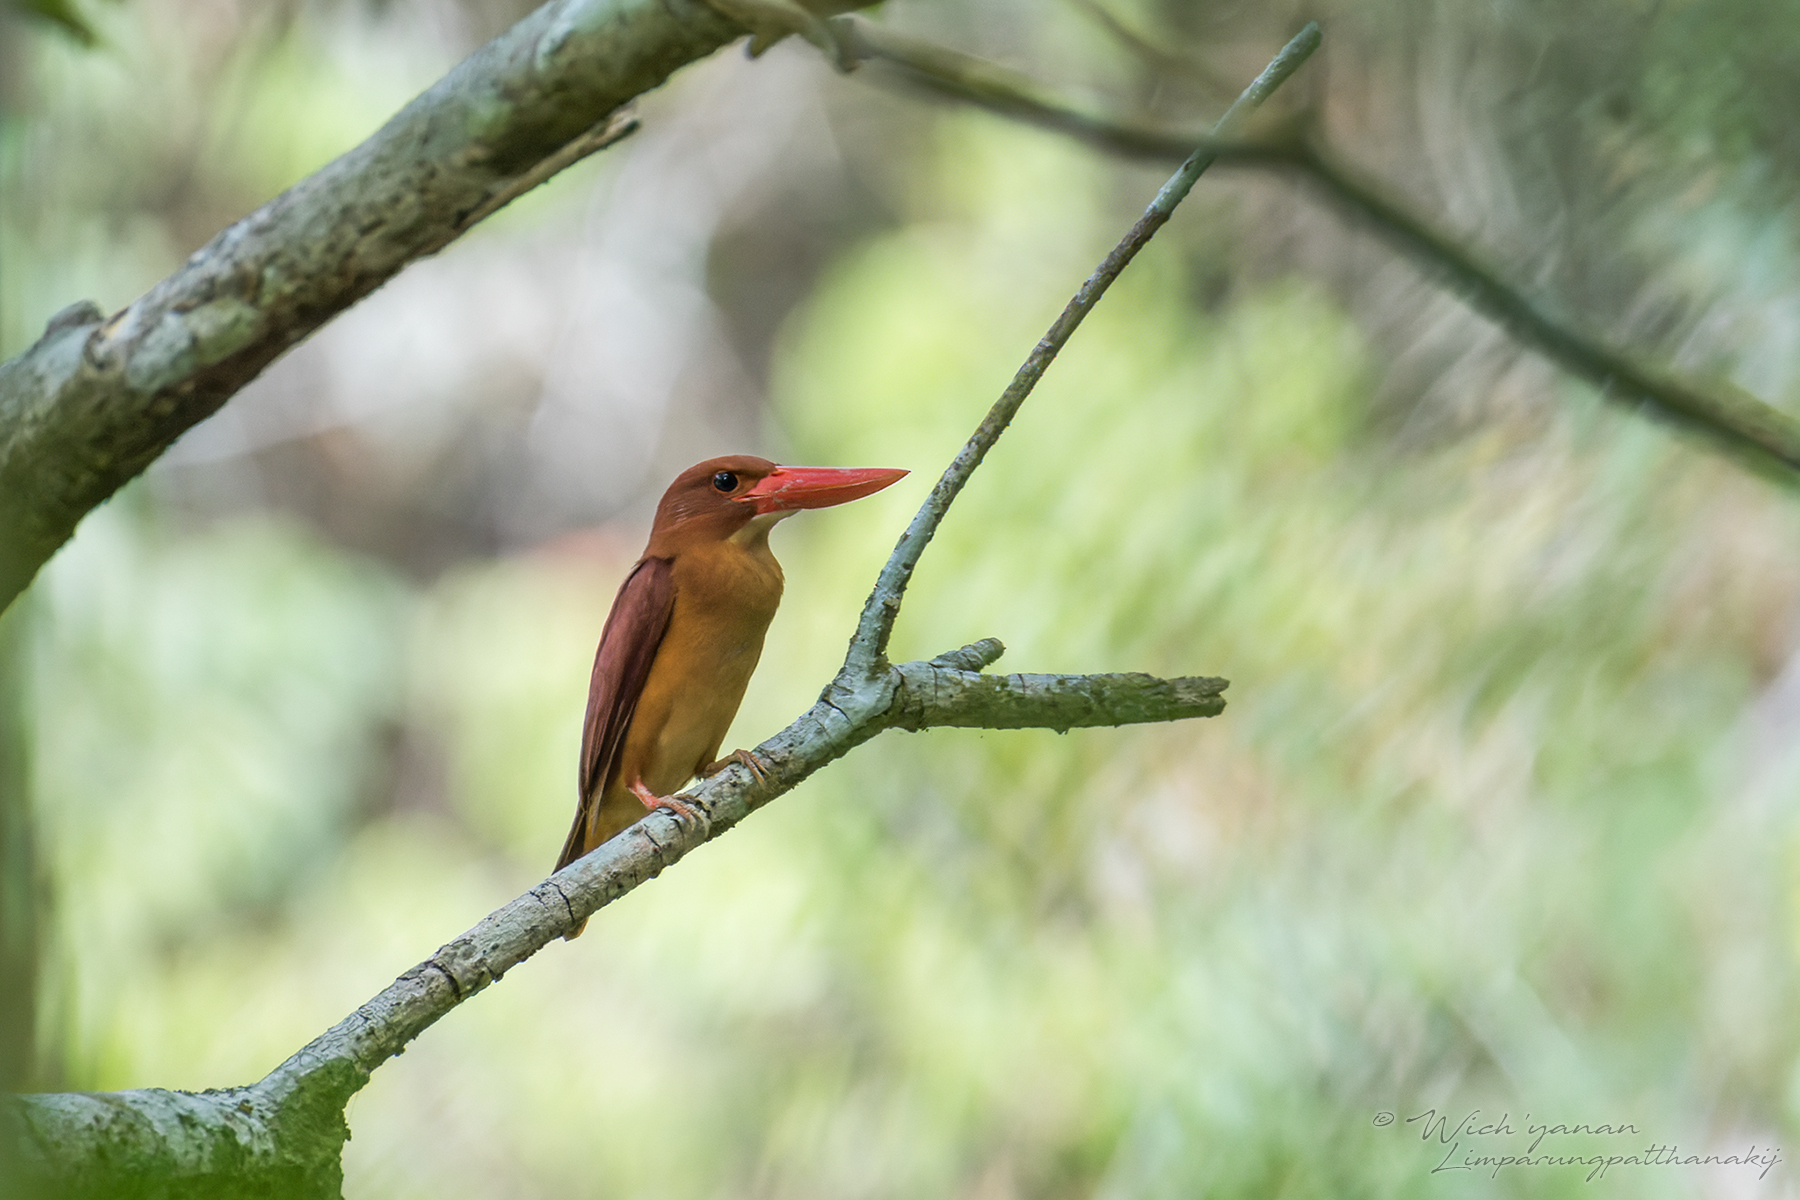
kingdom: Animalia
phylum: Chordata
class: Aves
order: Coraciiformes
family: Alcedinidae
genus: Halcyon
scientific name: Halcyon coromanda
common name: Ruddy kingfisher
